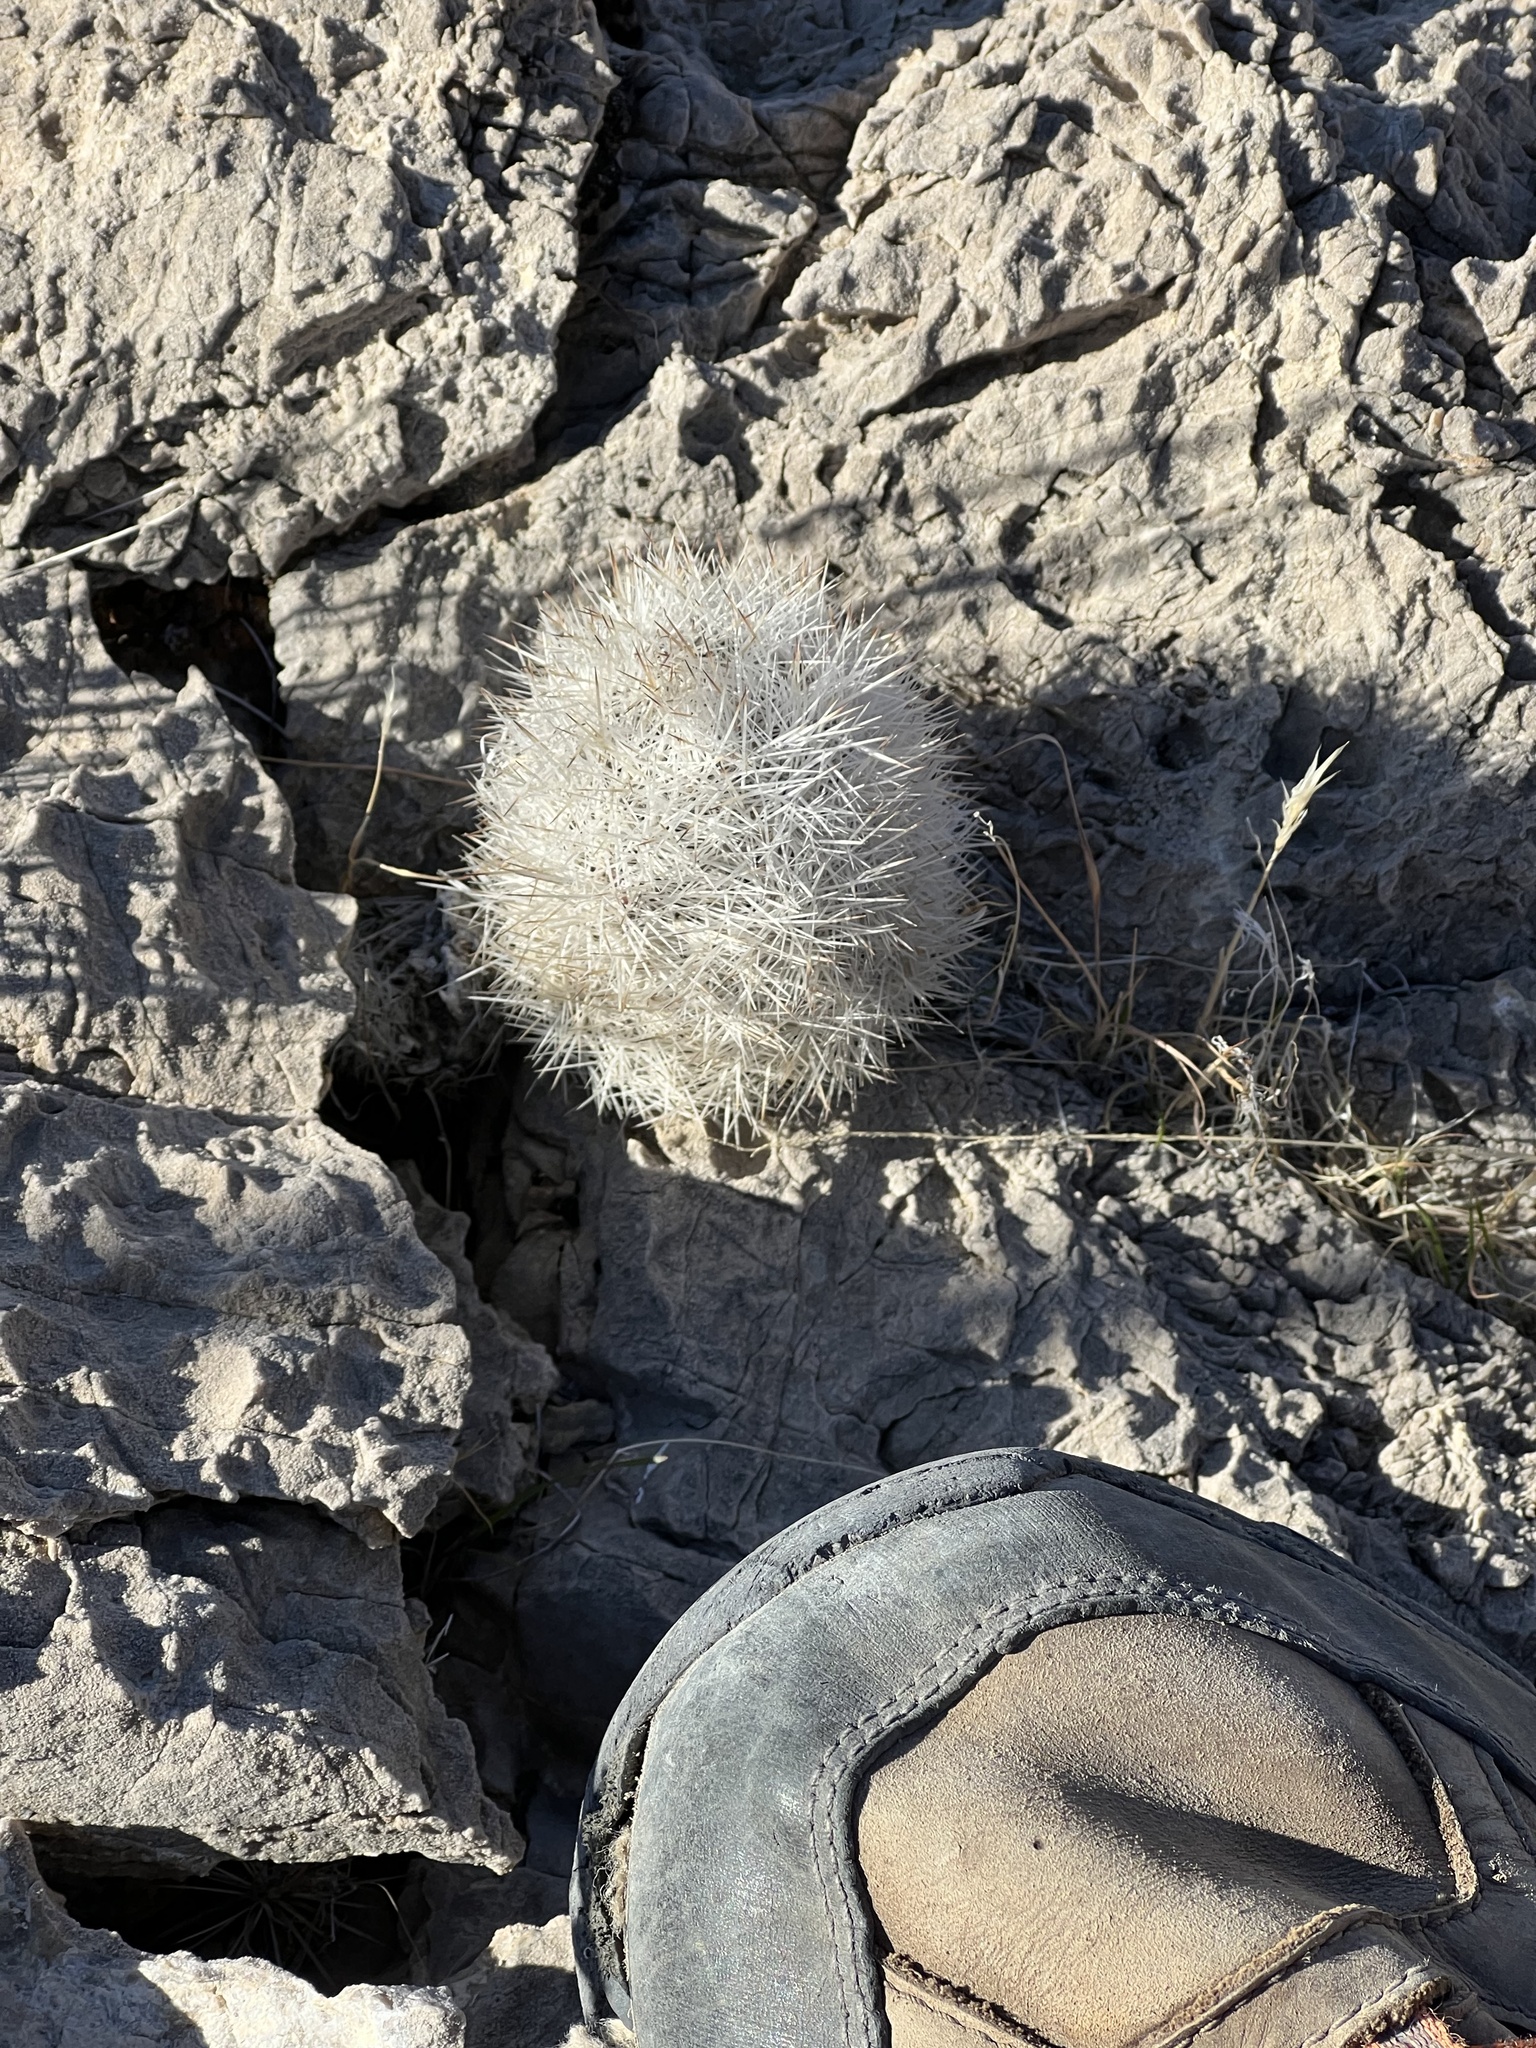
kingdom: Plantae
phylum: Tracheophyta
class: Magnoliopsida
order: Caryophyllales
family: Cactaceae
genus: Pelecyphora
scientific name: Pelecyphora dasyacantha
